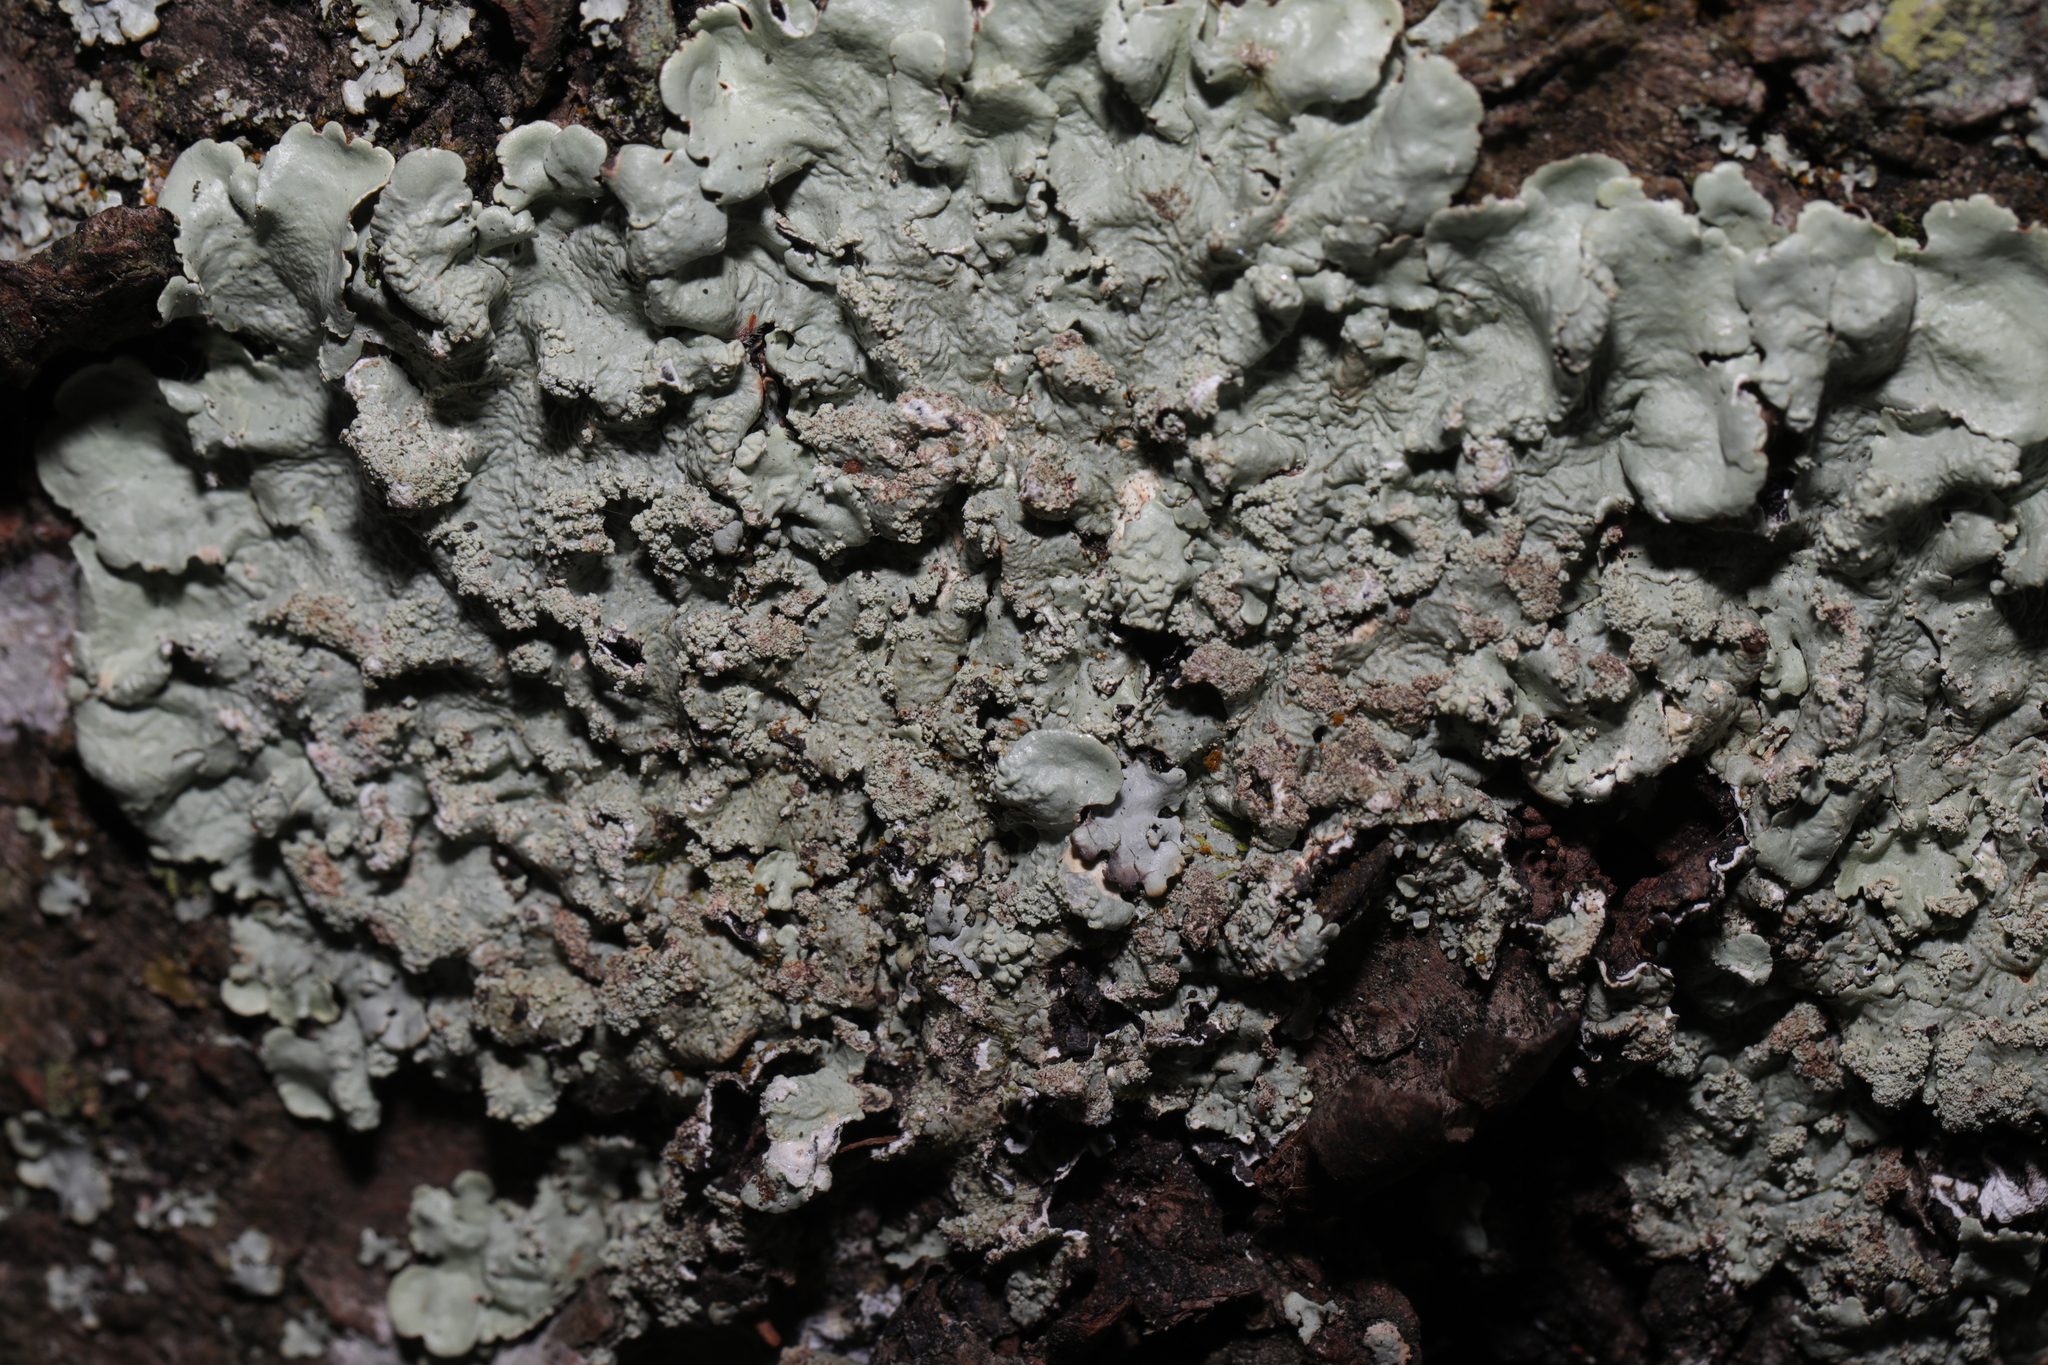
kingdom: Fungi
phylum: Ascomycota
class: Lecanoromycetes
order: Lecanorales
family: Parmeliaceae
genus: Flavoparmelia
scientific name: Flavoparmelia caperata
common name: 40-mile per hour lichen
